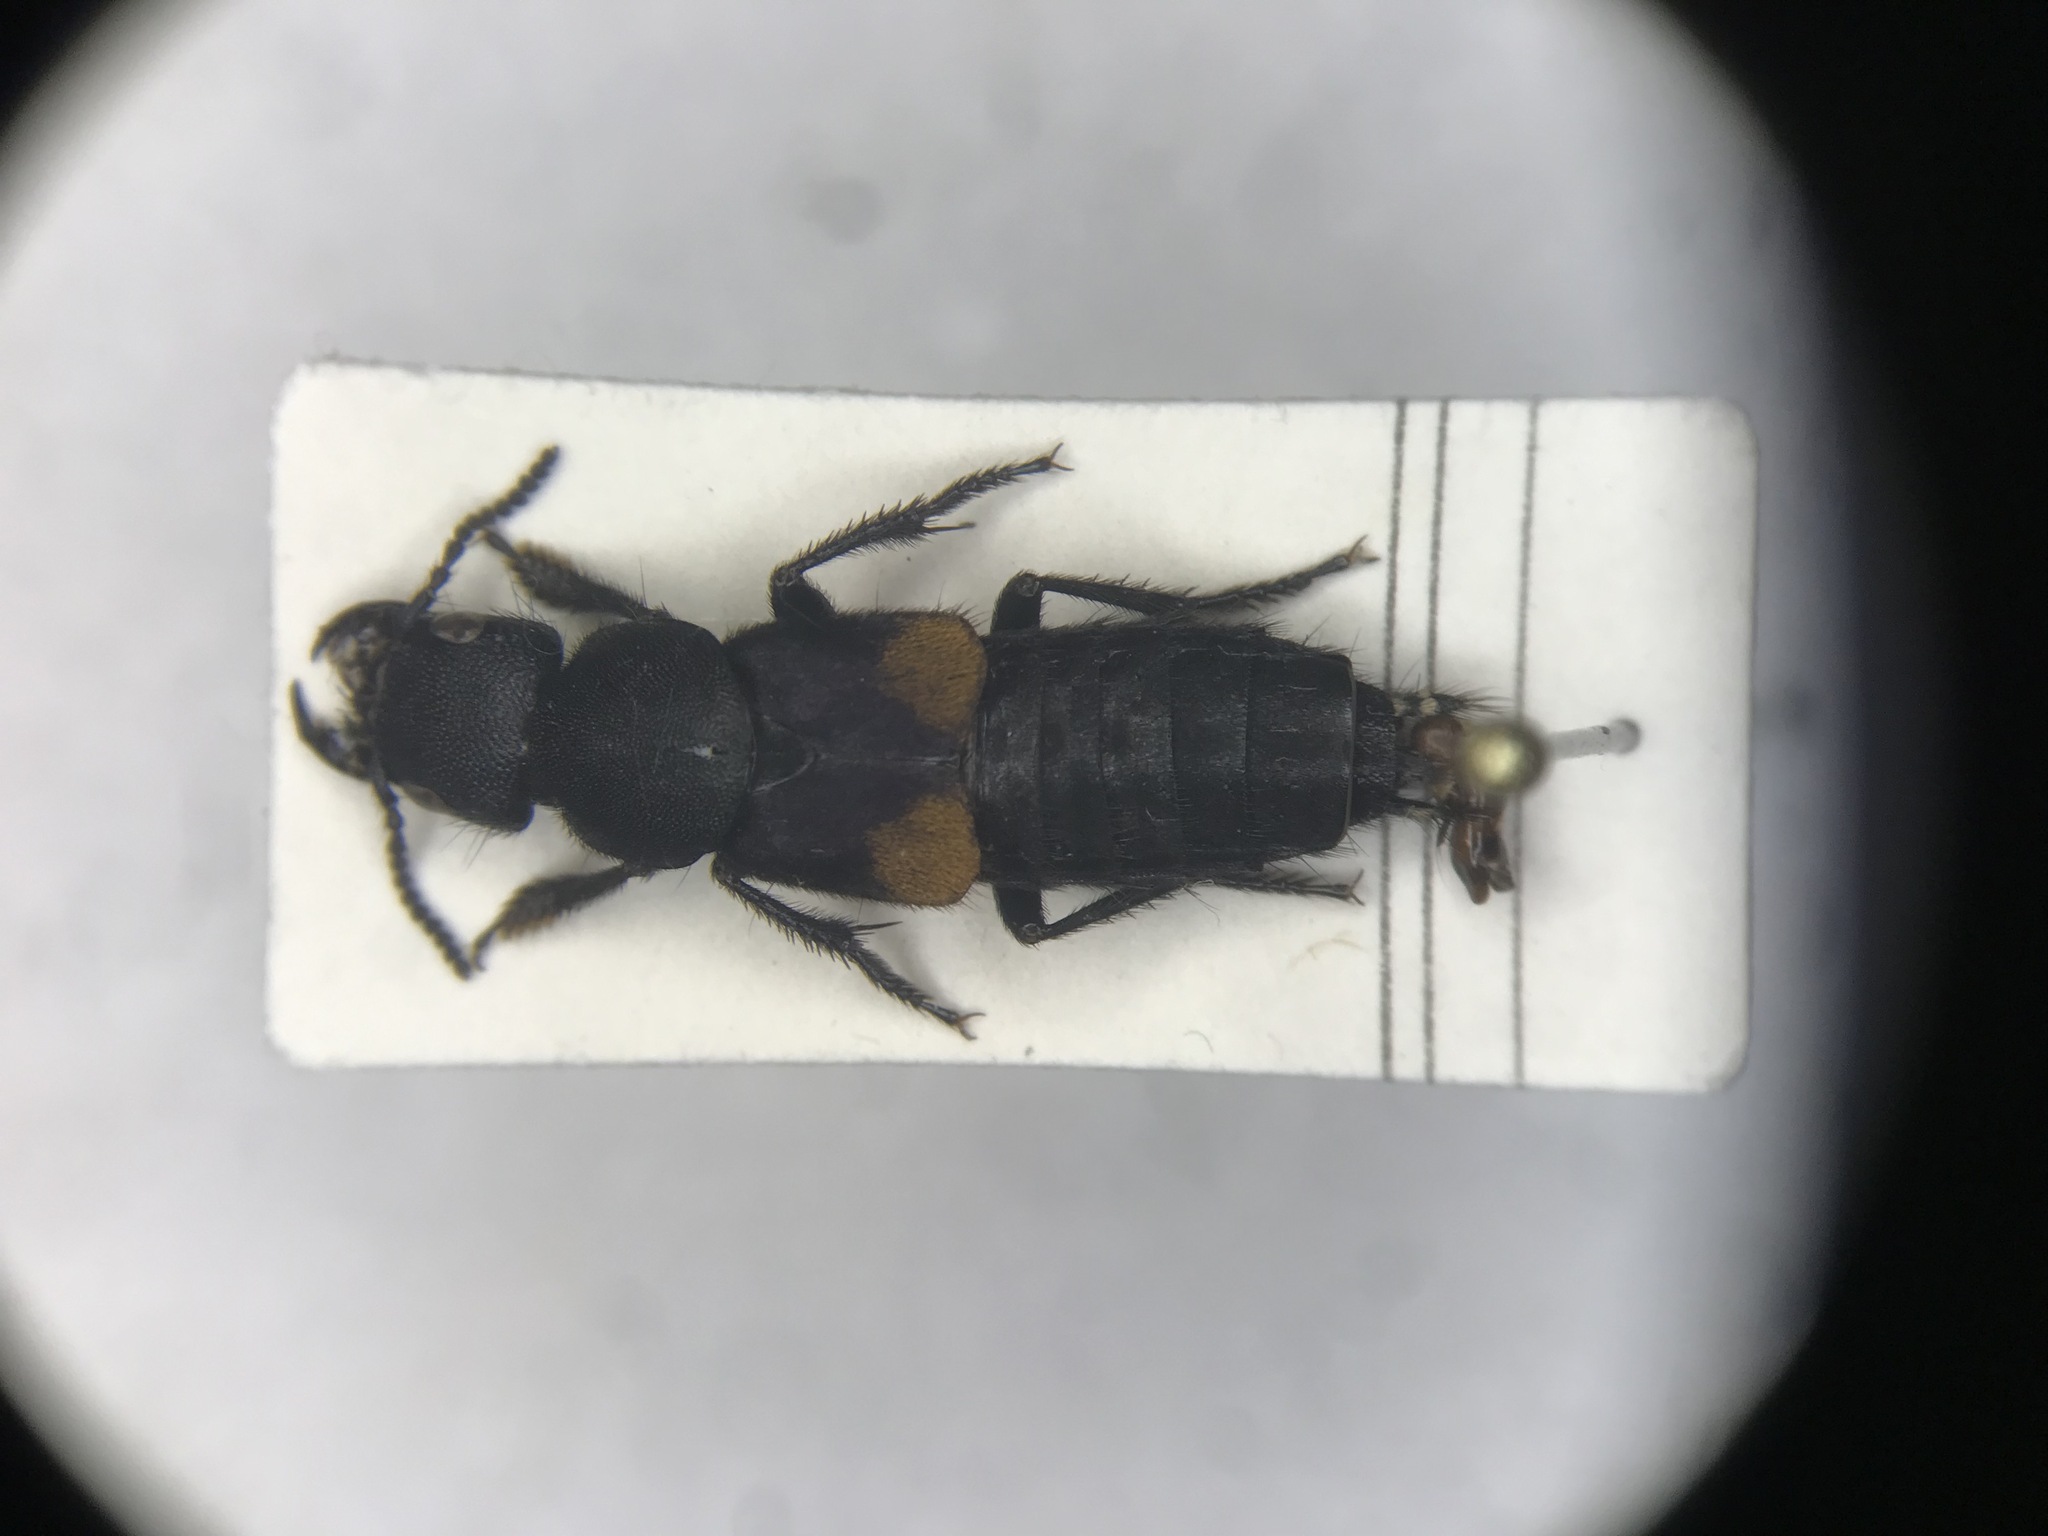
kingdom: Animalia
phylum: Arthropoda
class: Insecta
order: Coleoptera
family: Staphylinidae
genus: Platydracus
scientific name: Platydracus fossator
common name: Red-spotted rove beetle
